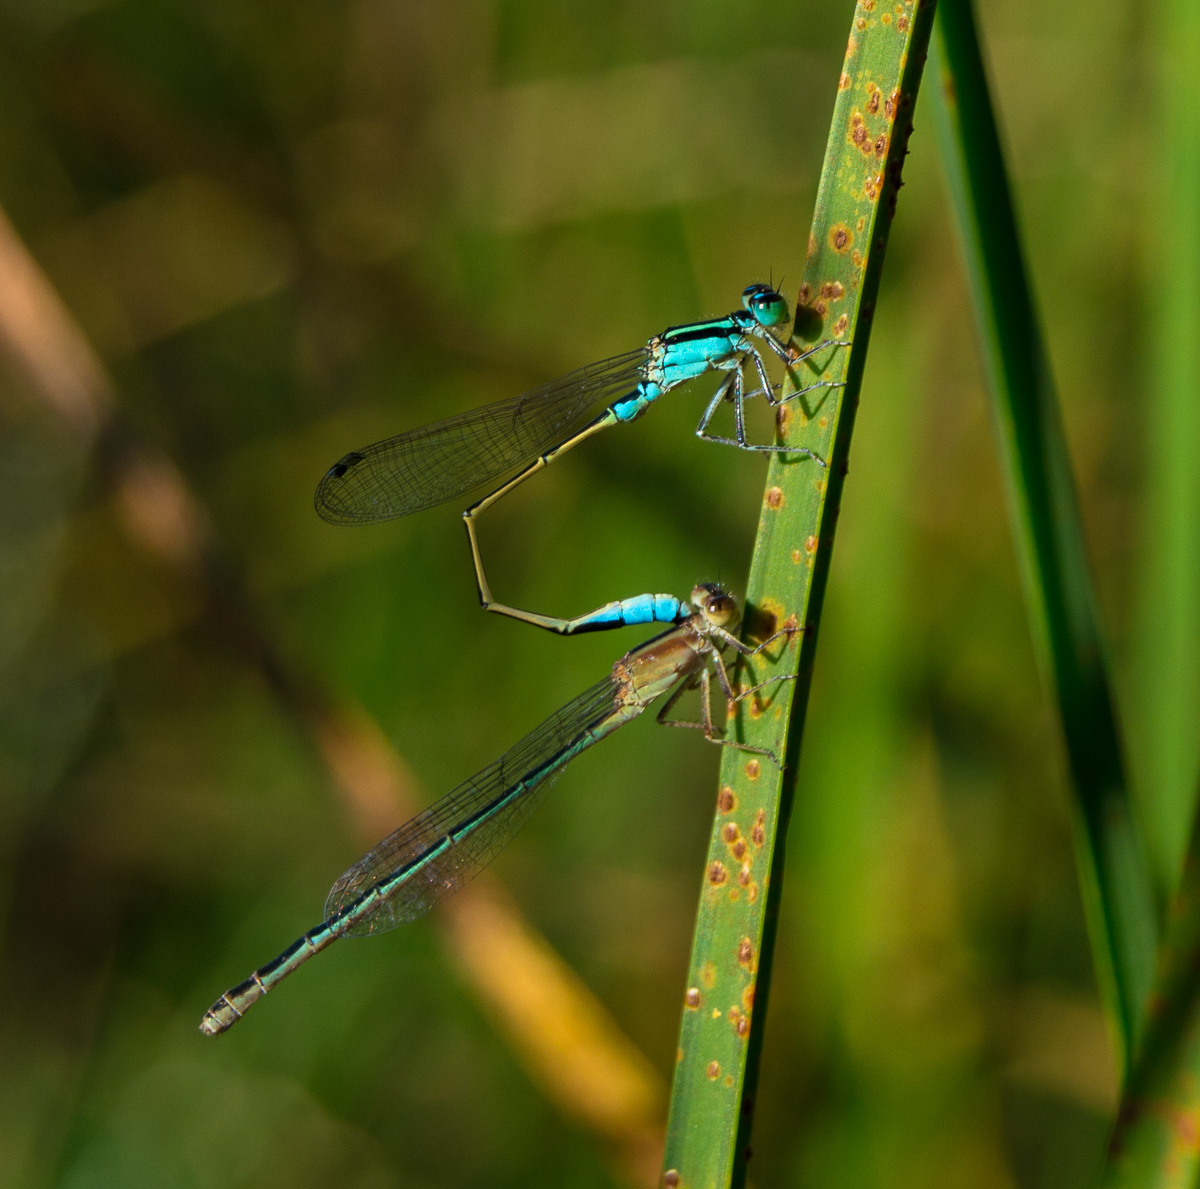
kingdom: Animalia
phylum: Arthropoda
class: Insecta
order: Odonata
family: Coenagrionidae
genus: Ischnura
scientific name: Ischnura fluviatilis
